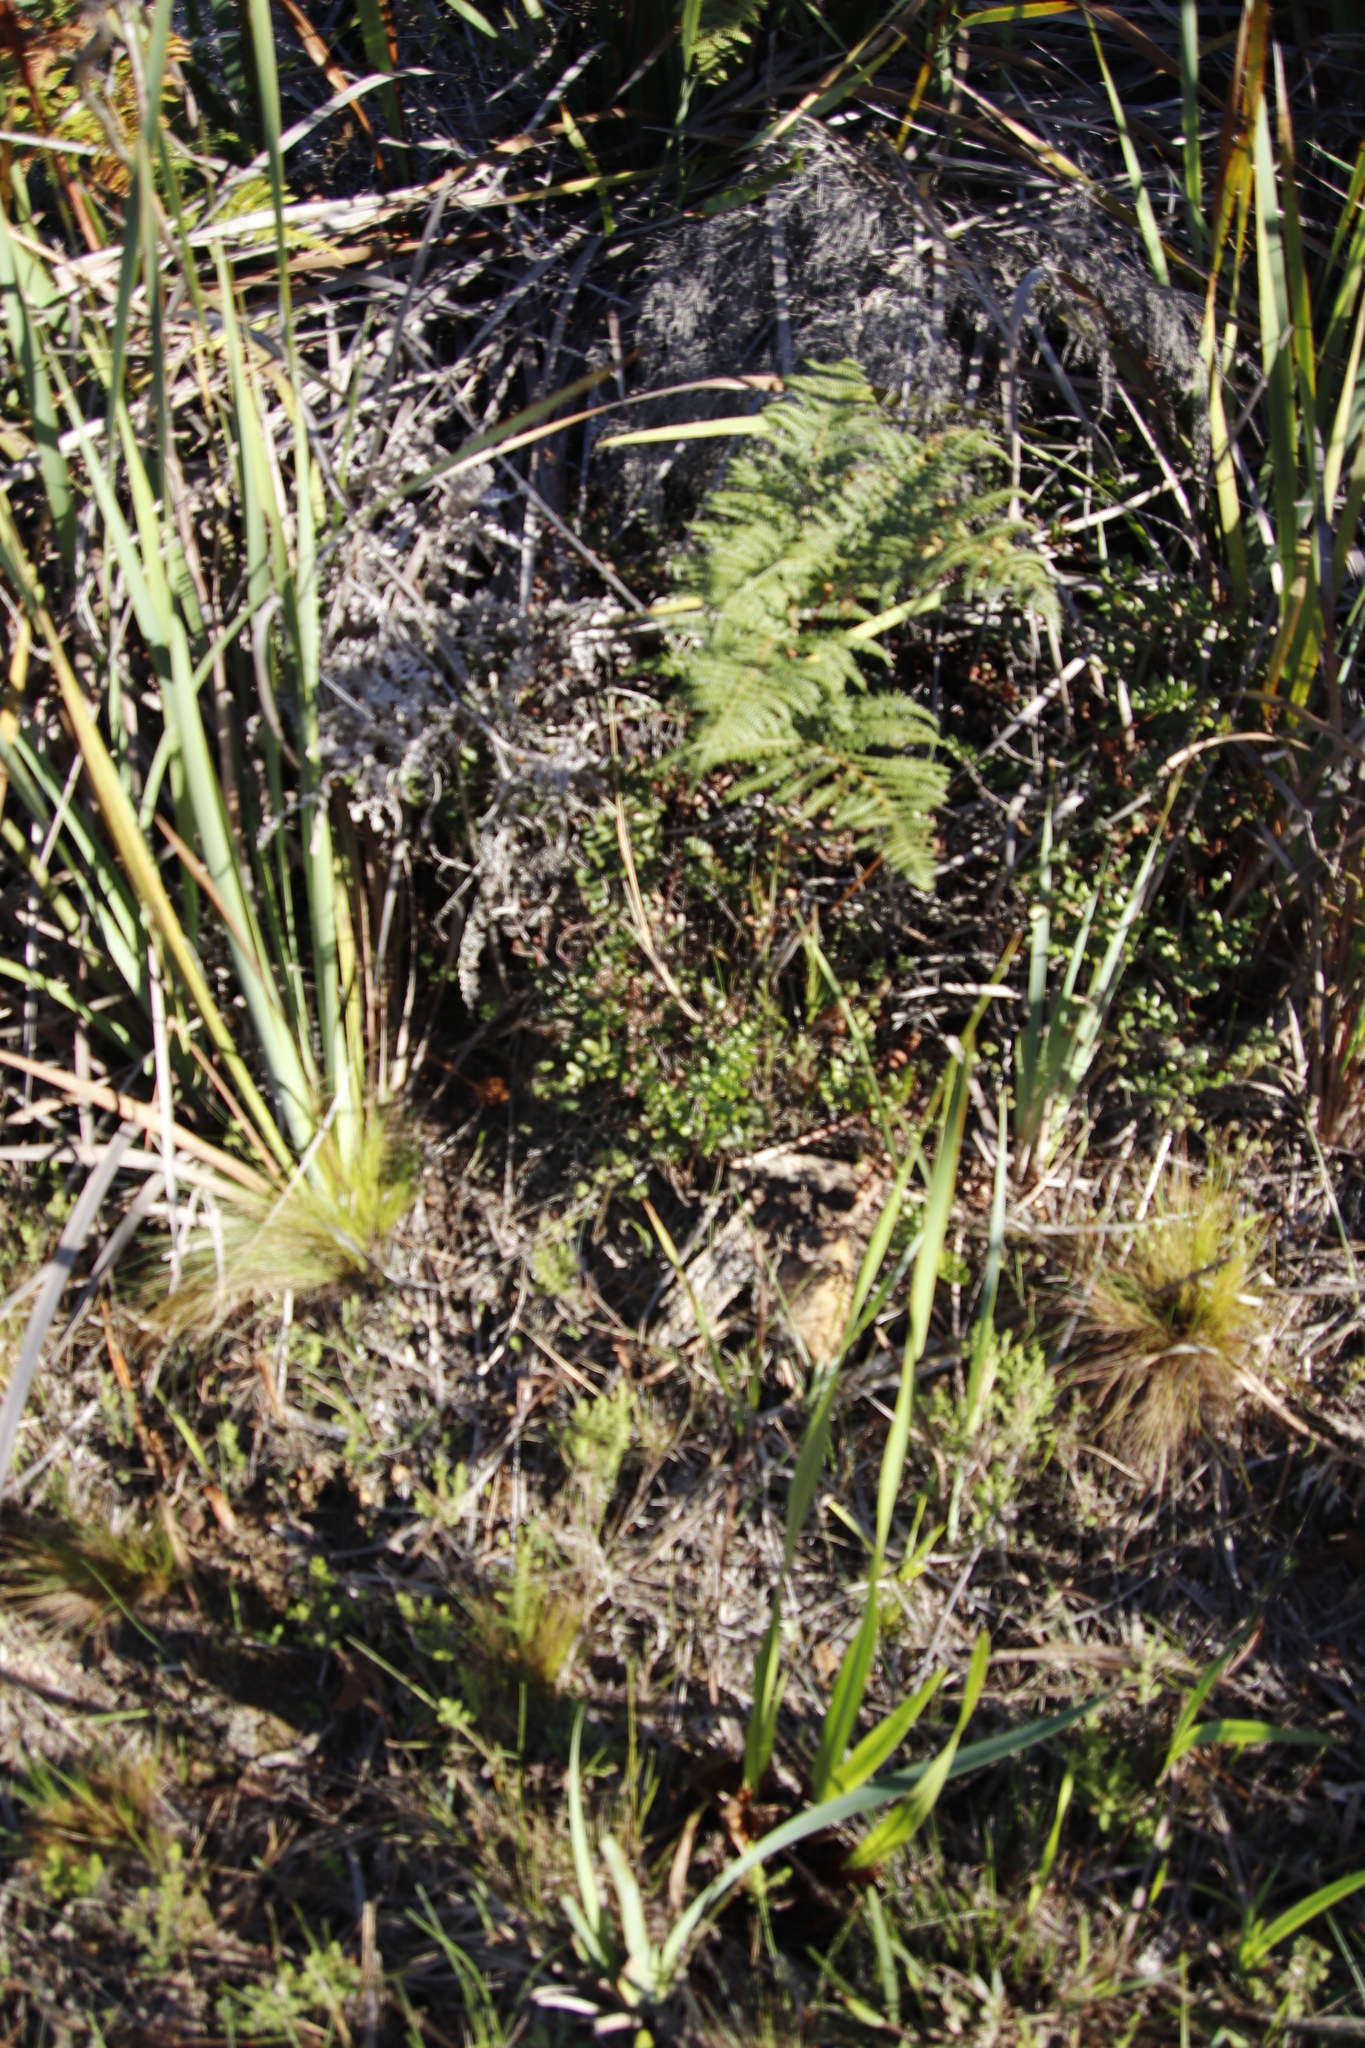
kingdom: Plantae
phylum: Tracheophyta
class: Polypodiopsida
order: Polypodiales
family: Pteridaceae
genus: Pellaea
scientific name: Pellaea pteroides
